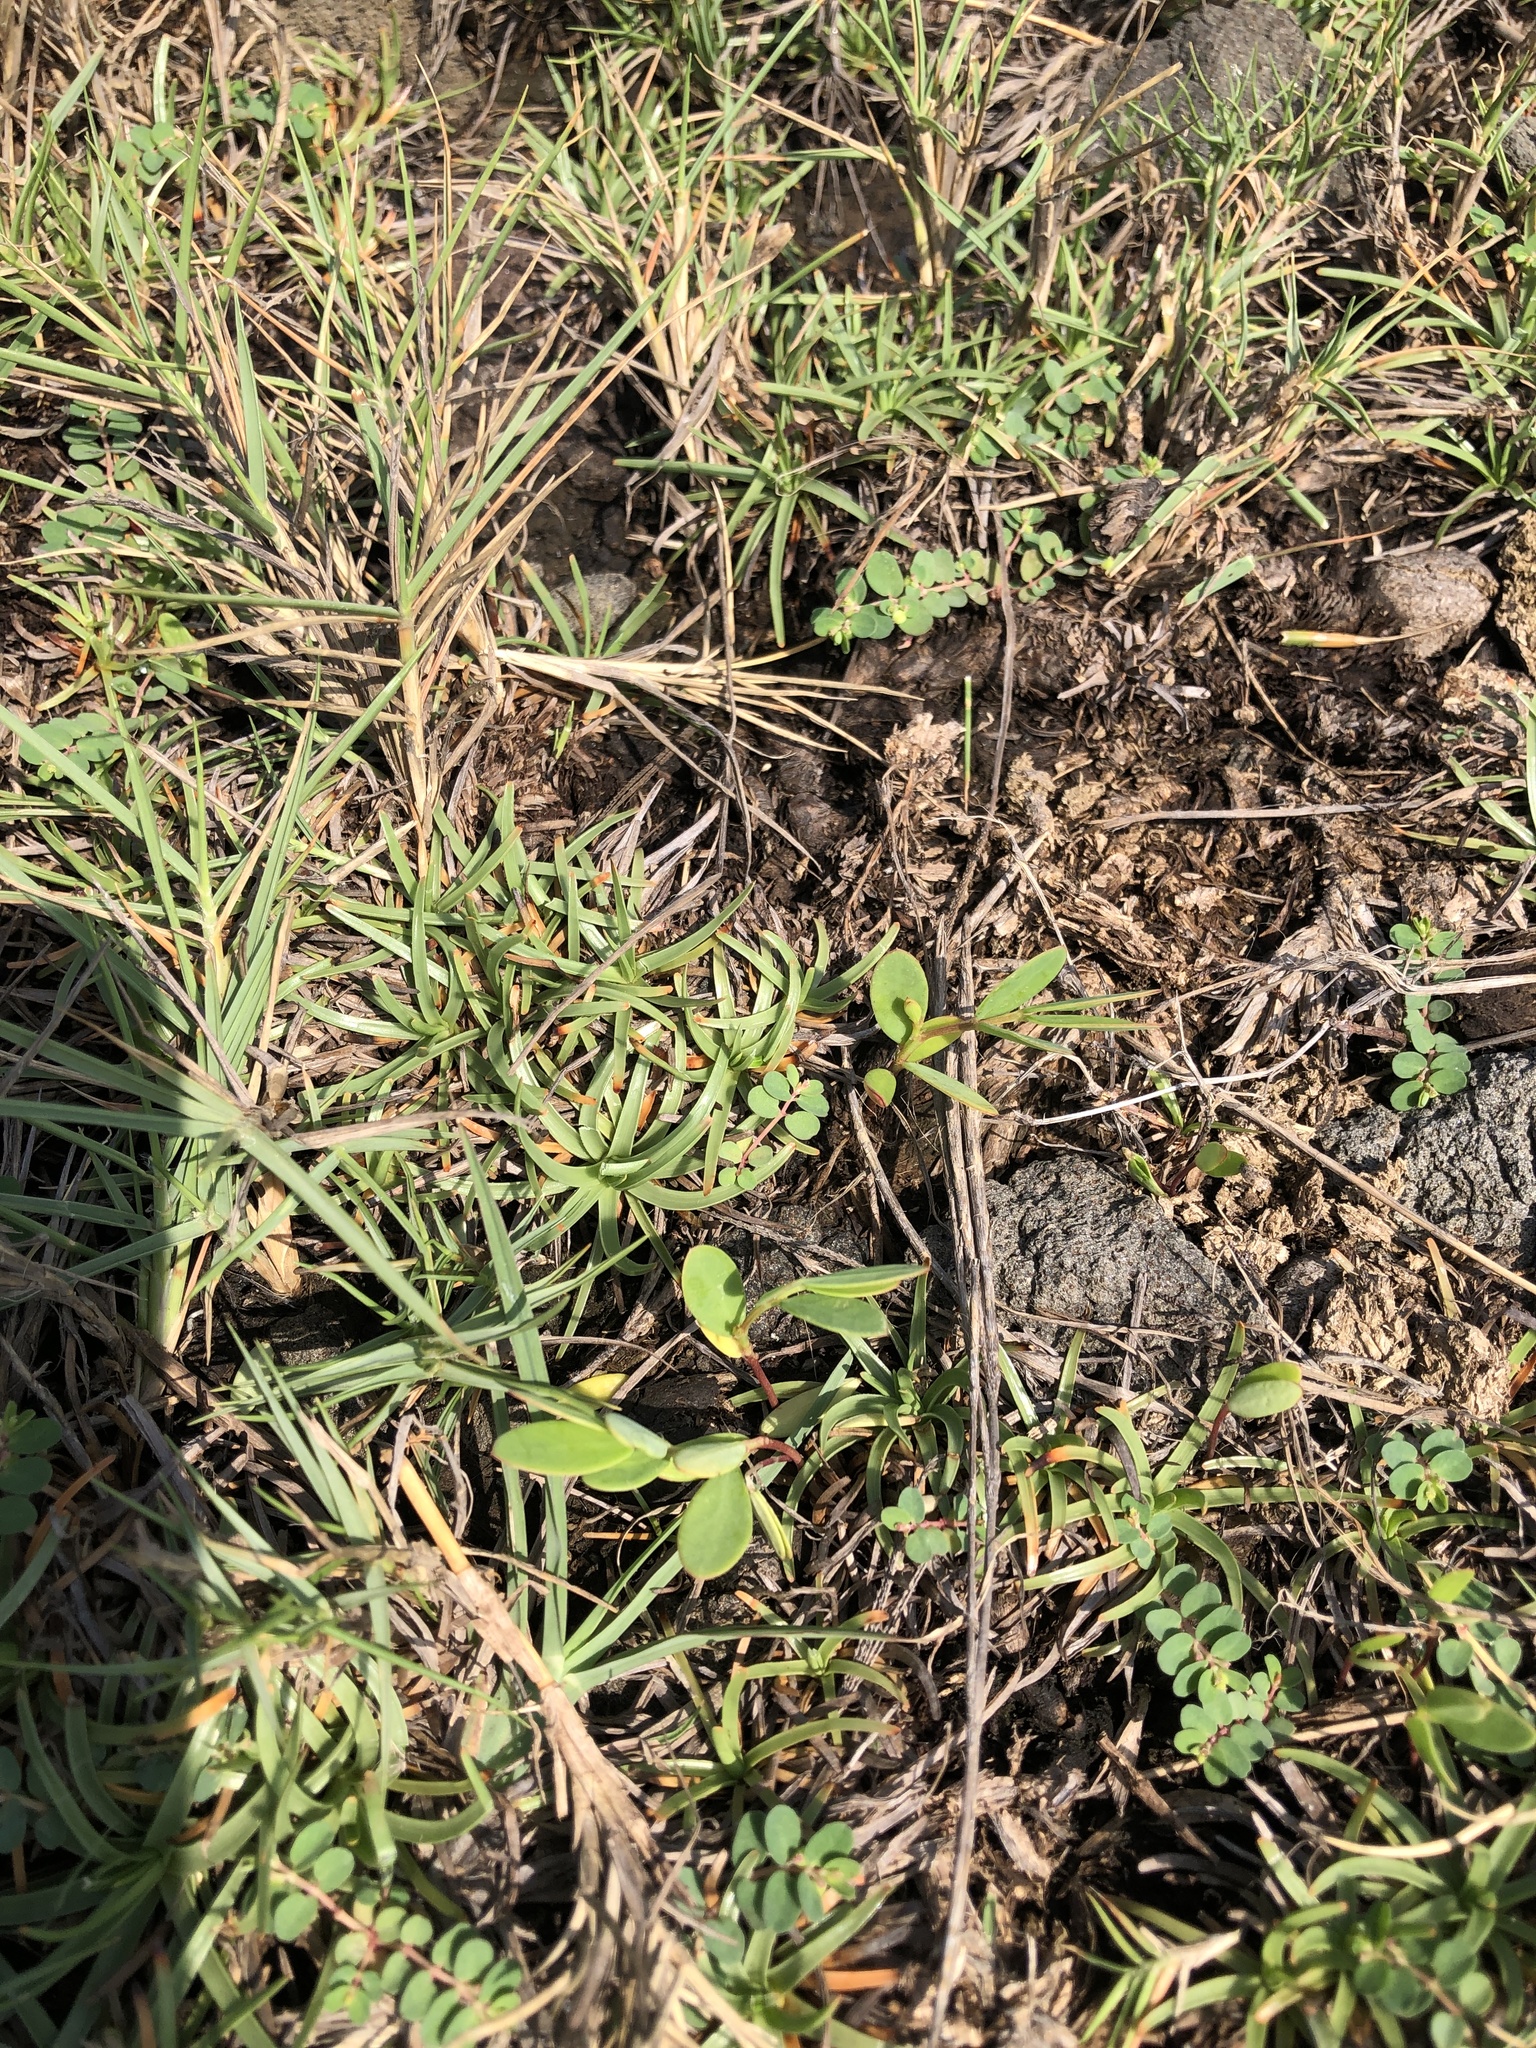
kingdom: Plantae
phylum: Tracheophyta
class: Magnoliopsida
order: Malpighiales
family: Phyllanthaceae
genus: Synostemon
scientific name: Synostemon bacciformis
